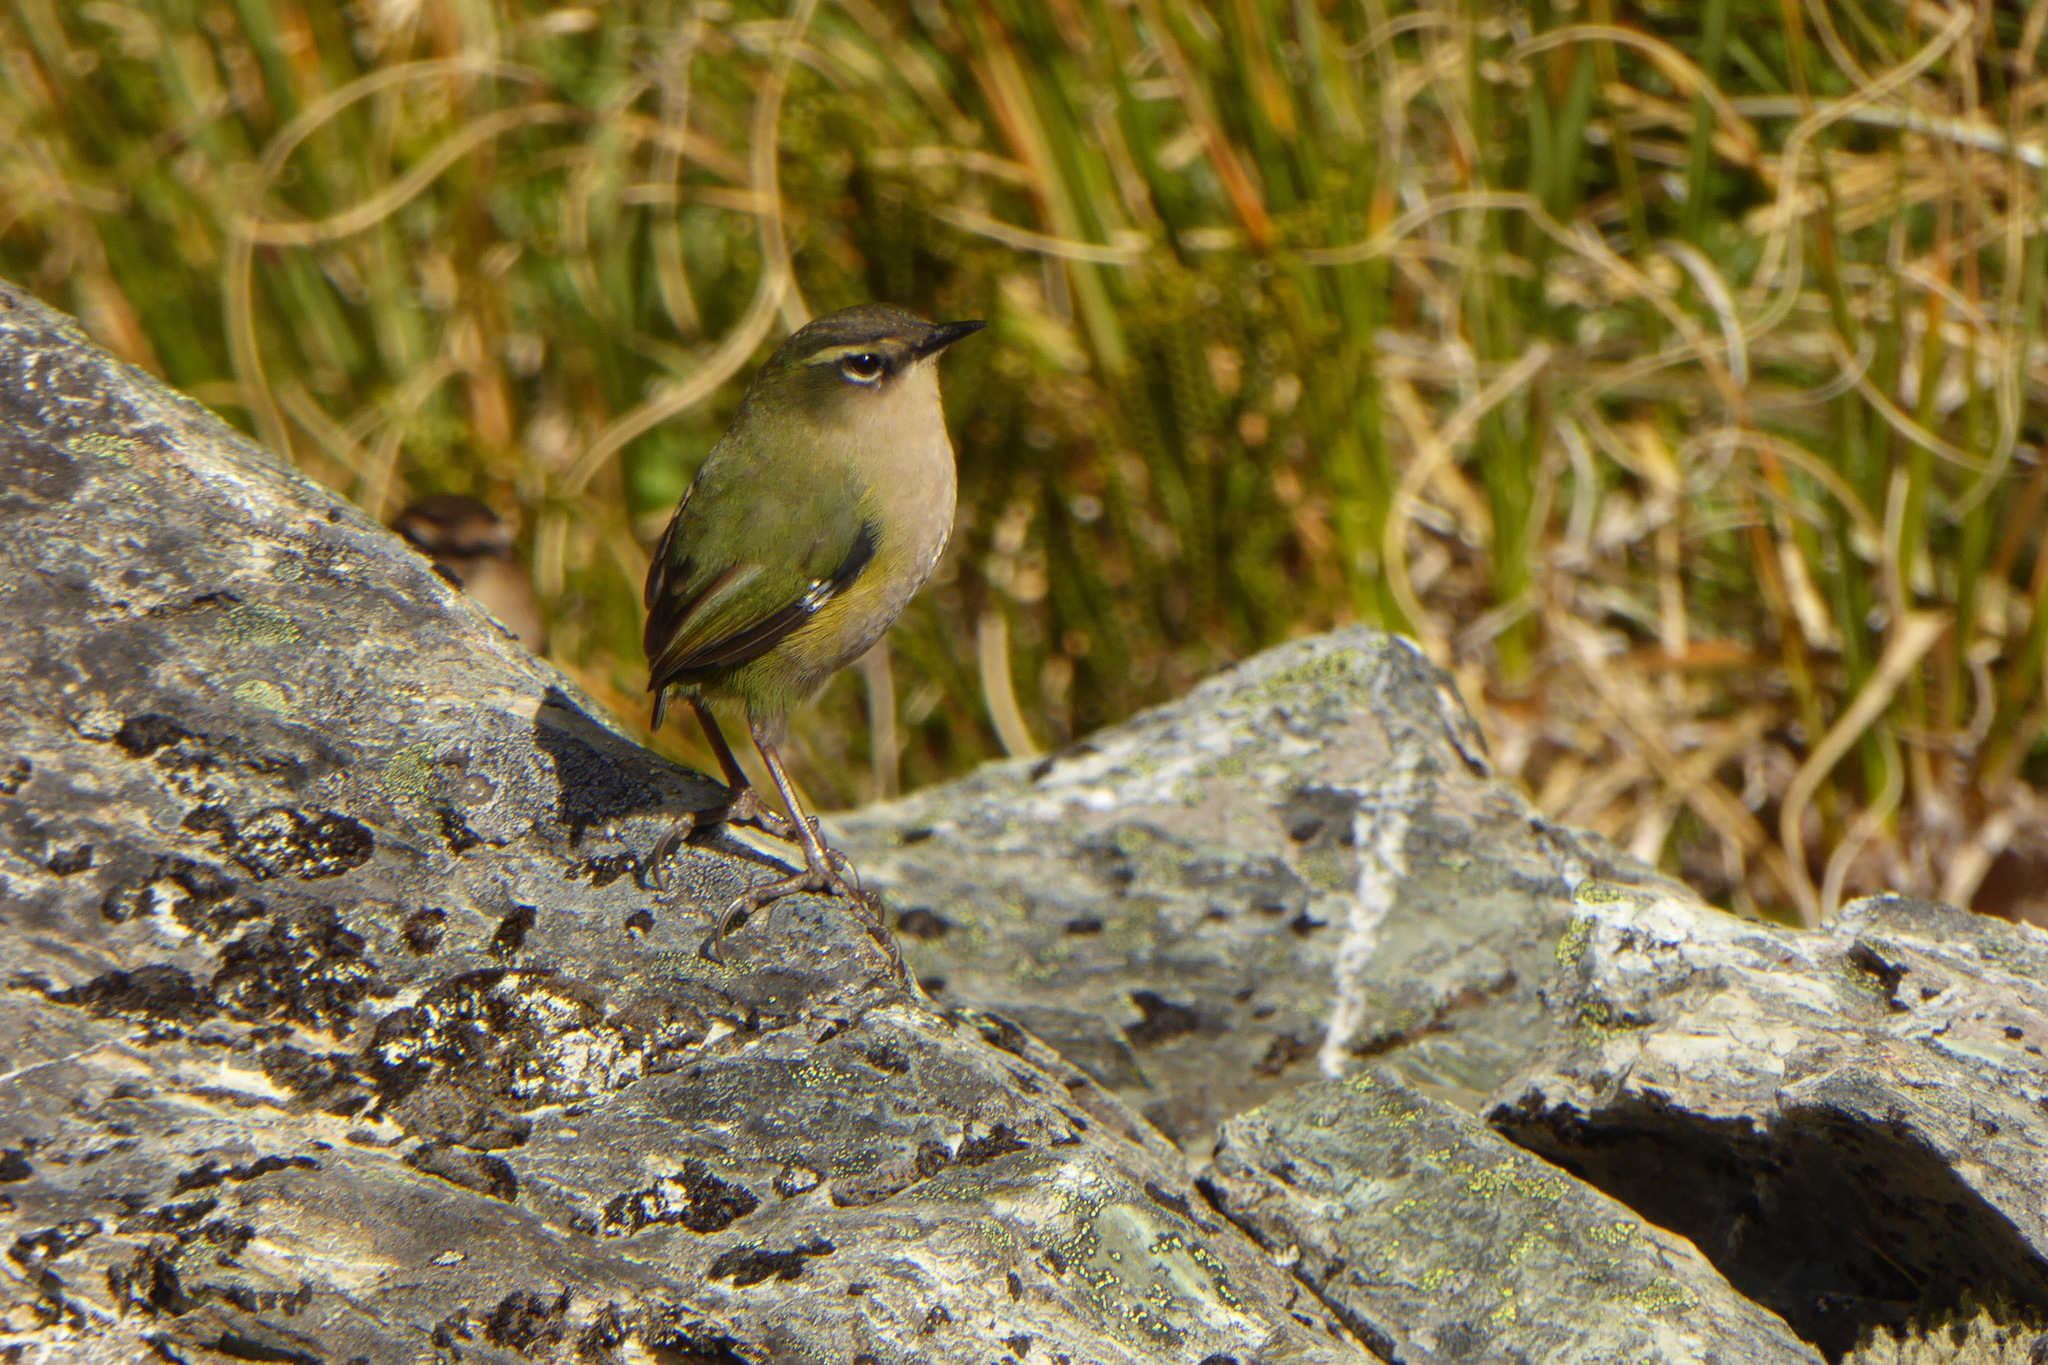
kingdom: Animalia
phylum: Chordata
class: Aves
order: Passeriformes
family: Acanthisittidae
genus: Xenicus
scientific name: Xenicus gilviventris
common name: New zealand rockwren
